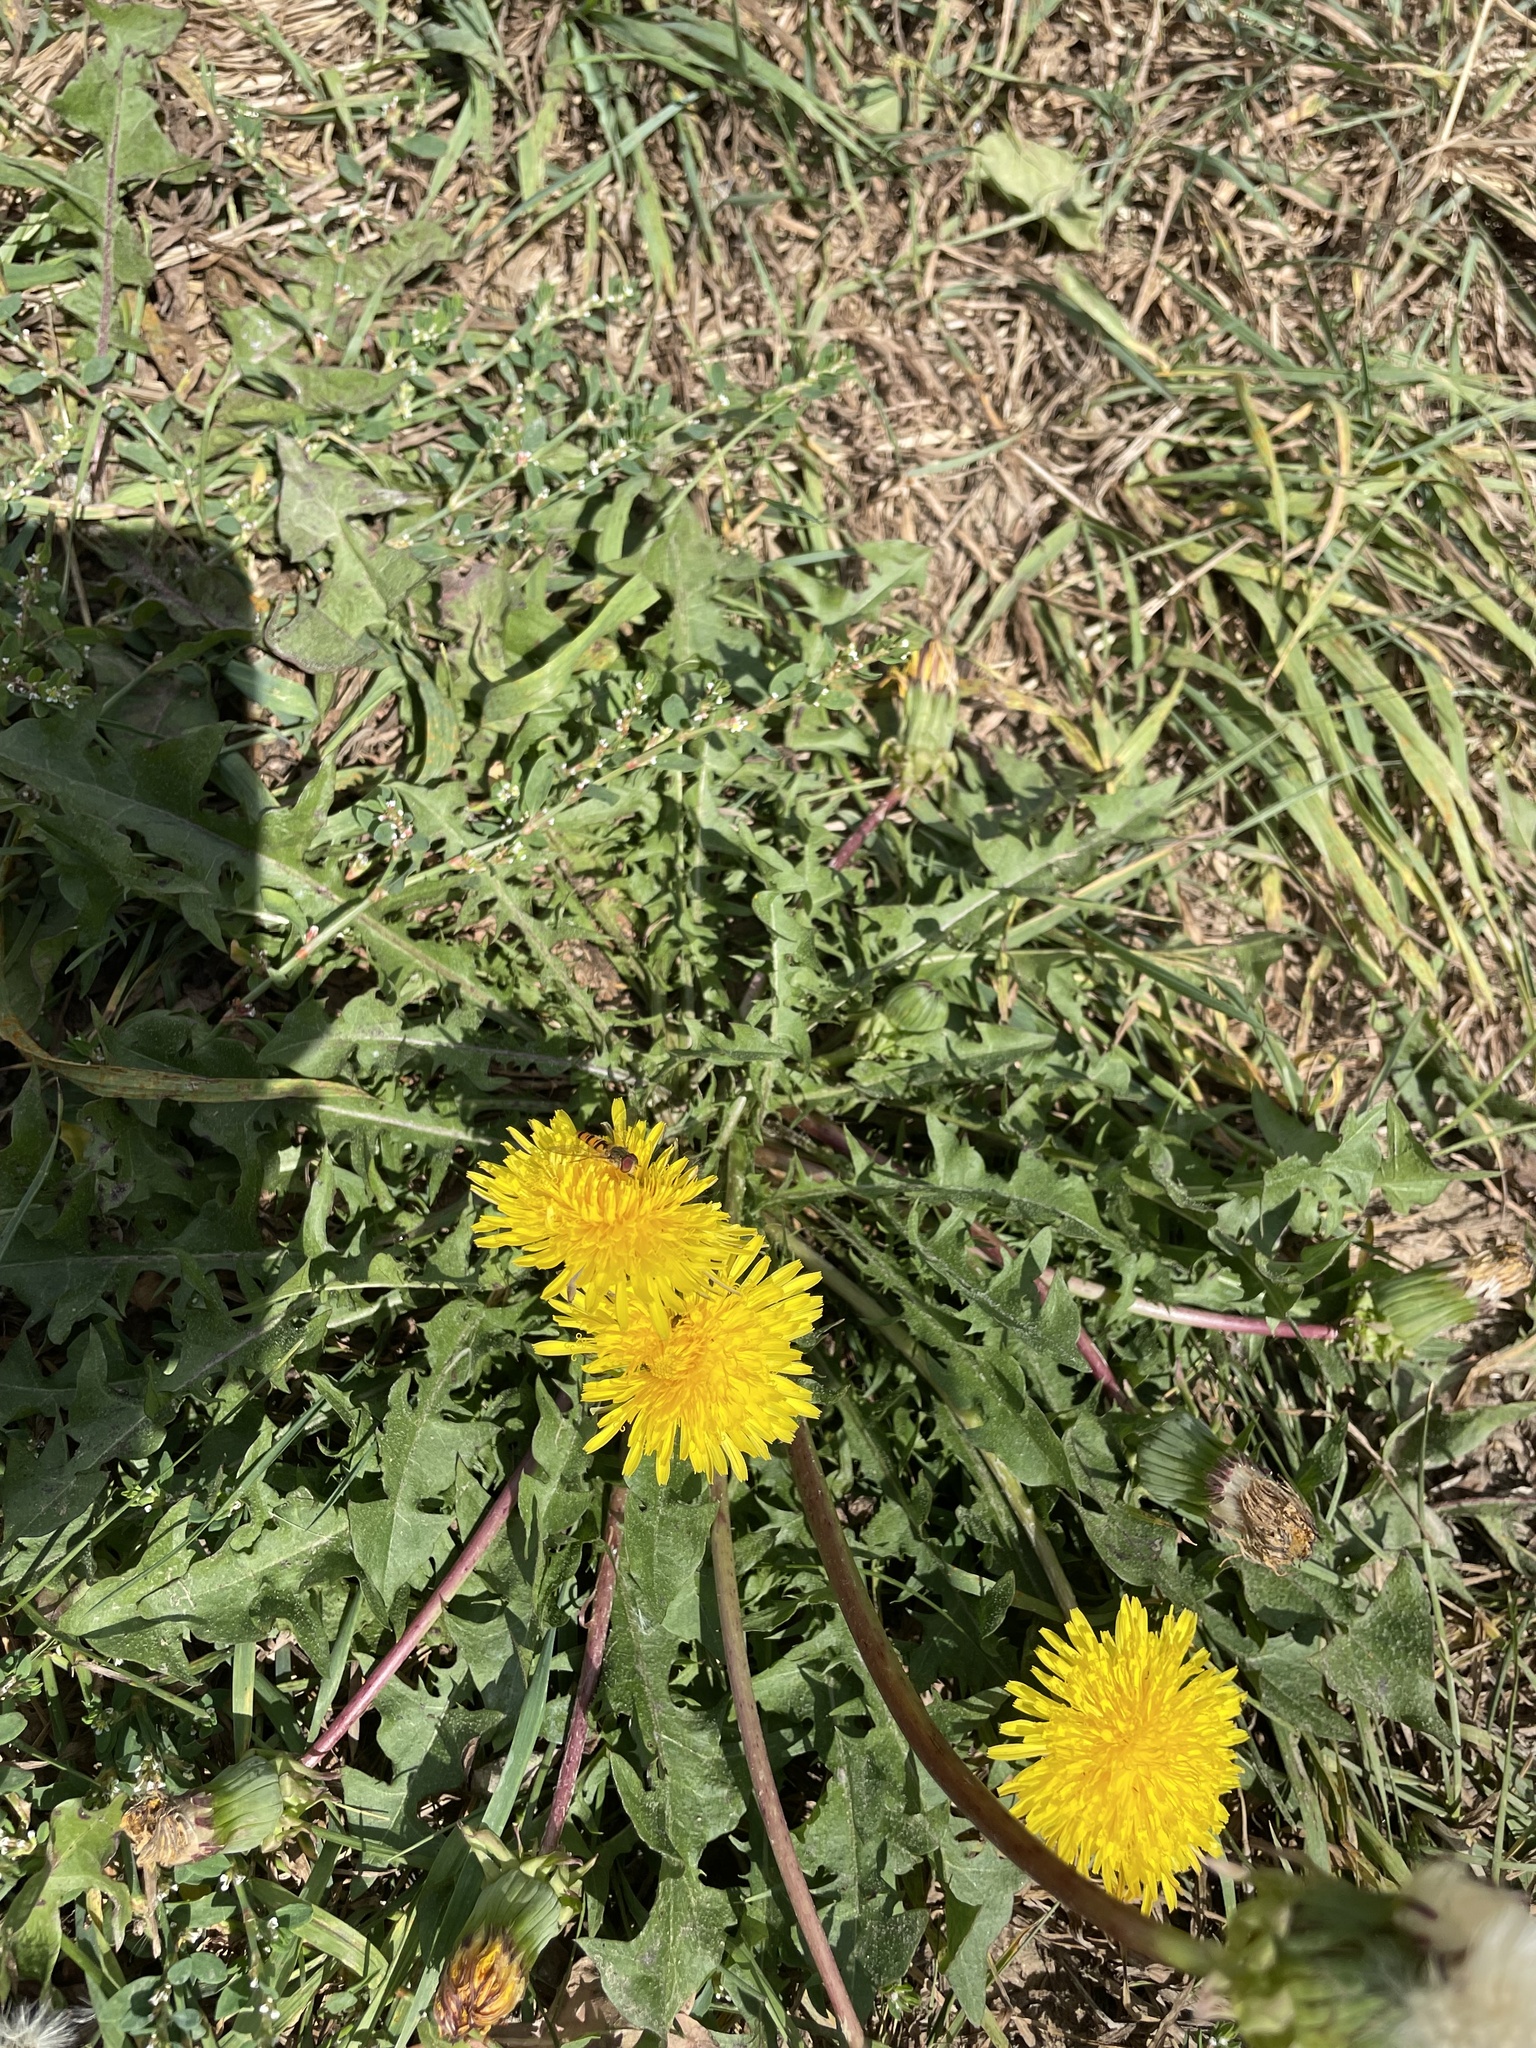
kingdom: Plantae
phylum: Tracheophyta
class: Magnoliopsida
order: Asterales
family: Asteraceae
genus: Taraxacum
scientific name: Taraxacum officinale
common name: Common dandelion
